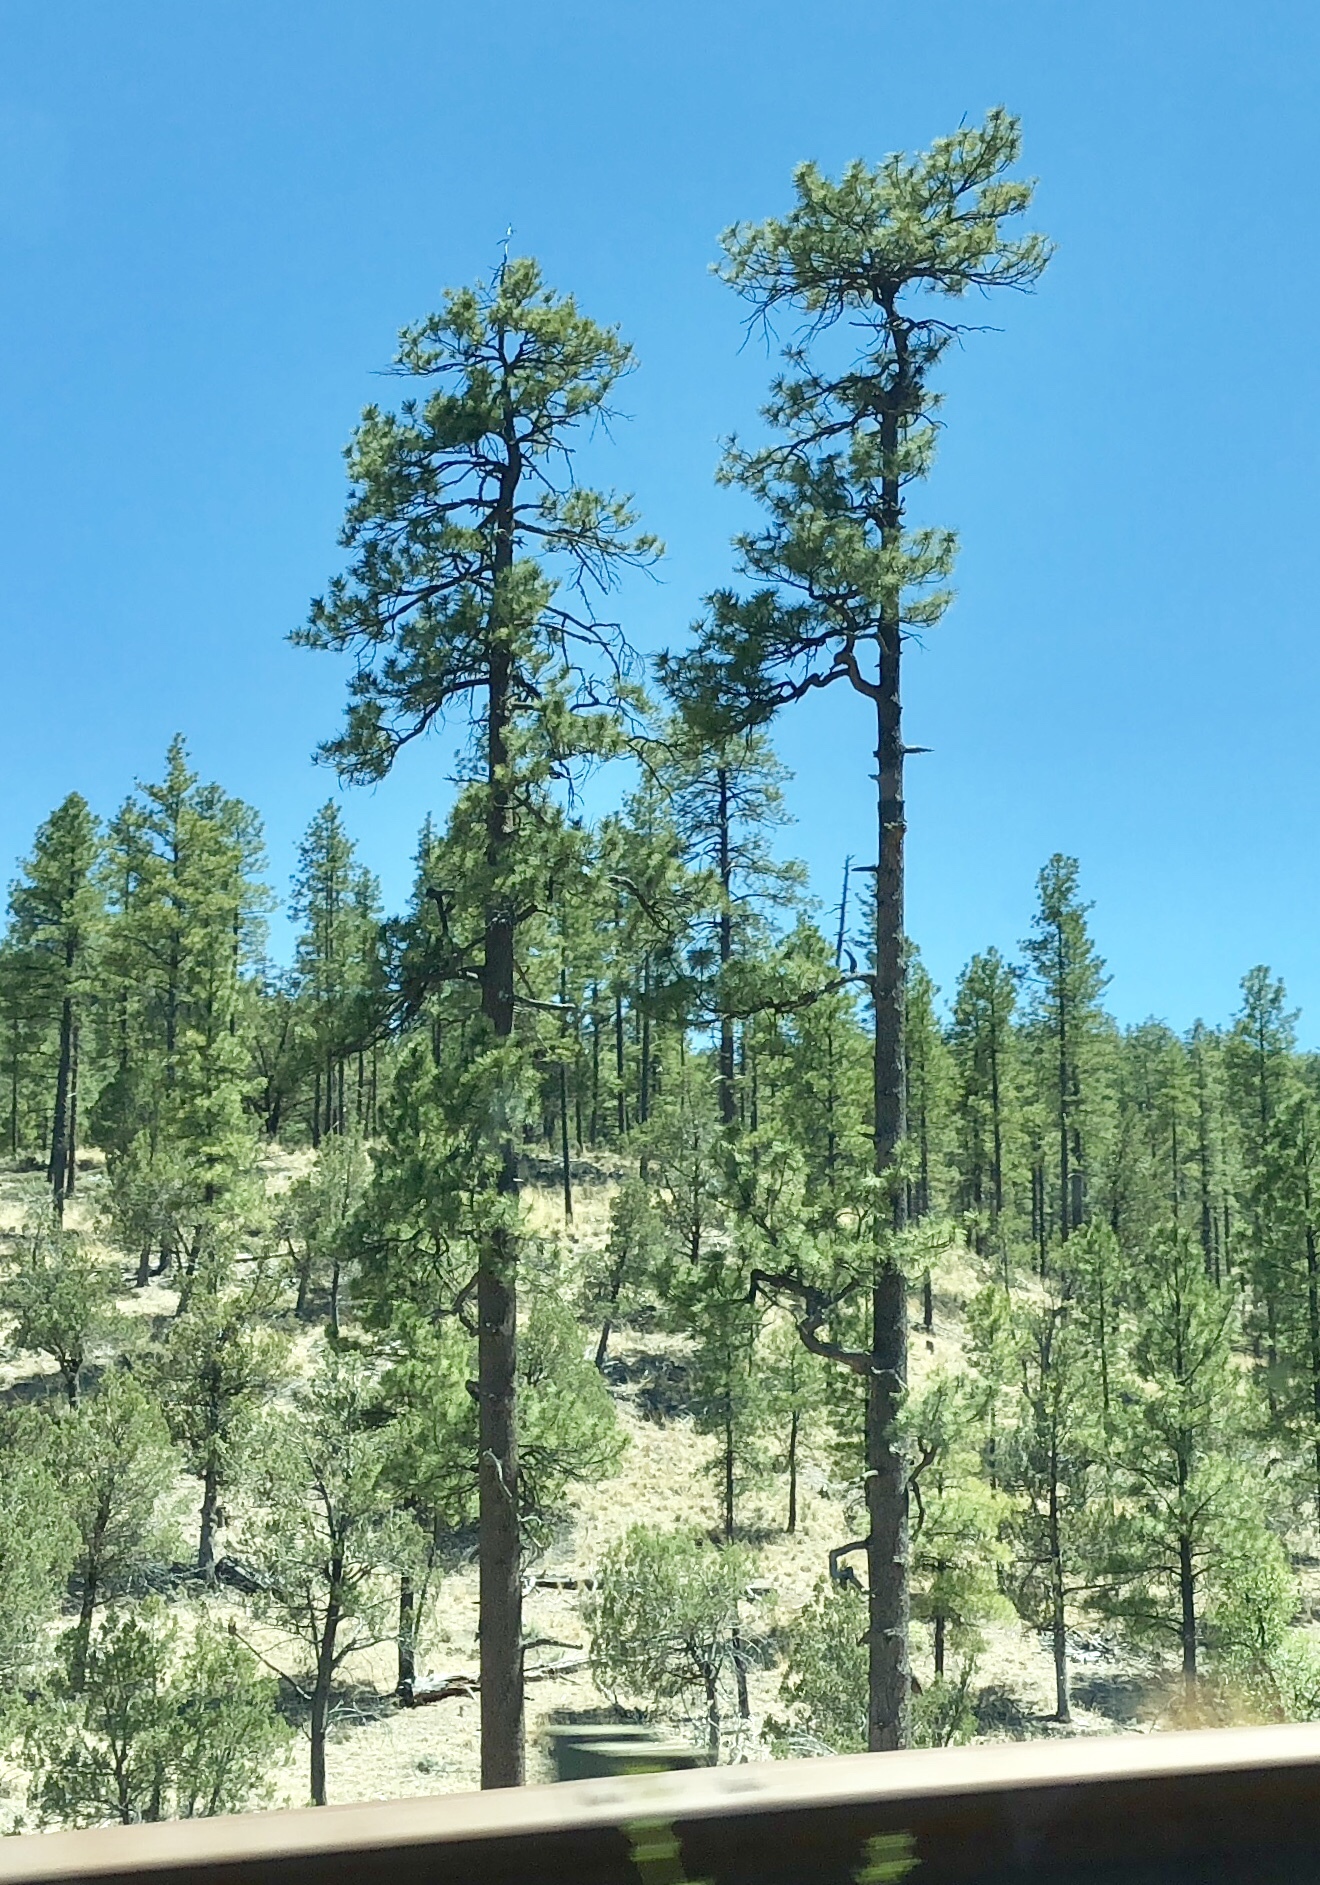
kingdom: Plantae
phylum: Tracheophyta
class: Pinopsida
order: Pinales
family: Pinaceae
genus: Pinus
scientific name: Pinus ponderosa
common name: Western yellow-pine
